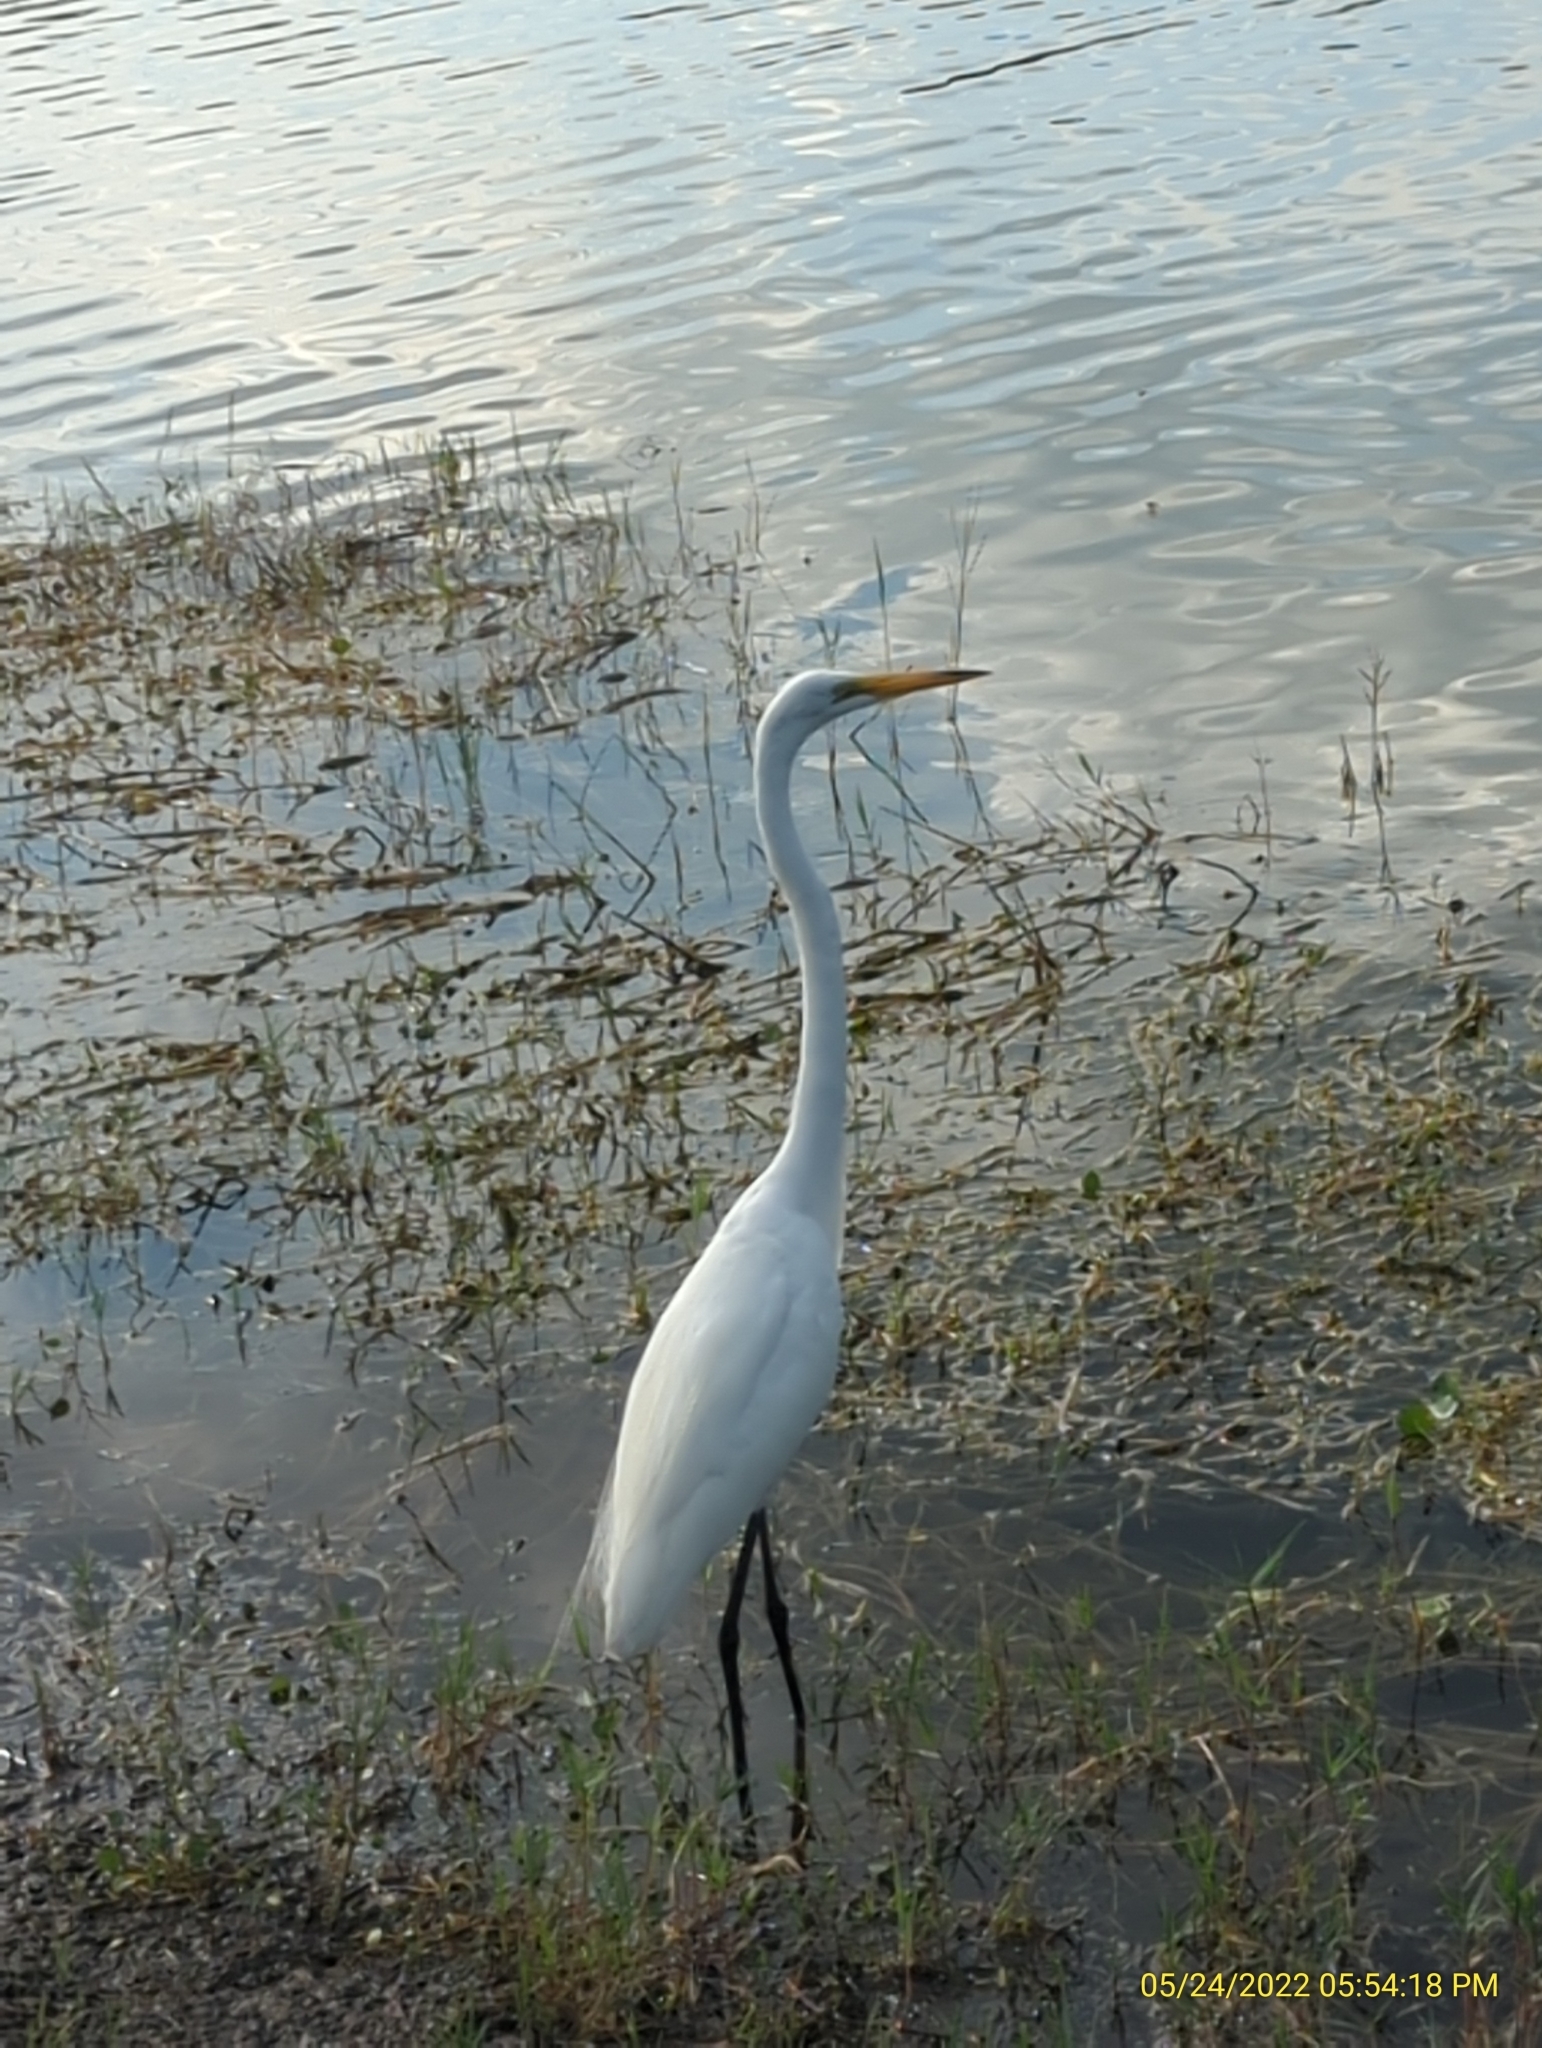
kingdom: Animalia
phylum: Chordata
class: Aves
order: Pelecaniformes
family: Ardeidae
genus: Ardea
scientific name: Ardea alba
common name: Great egret
